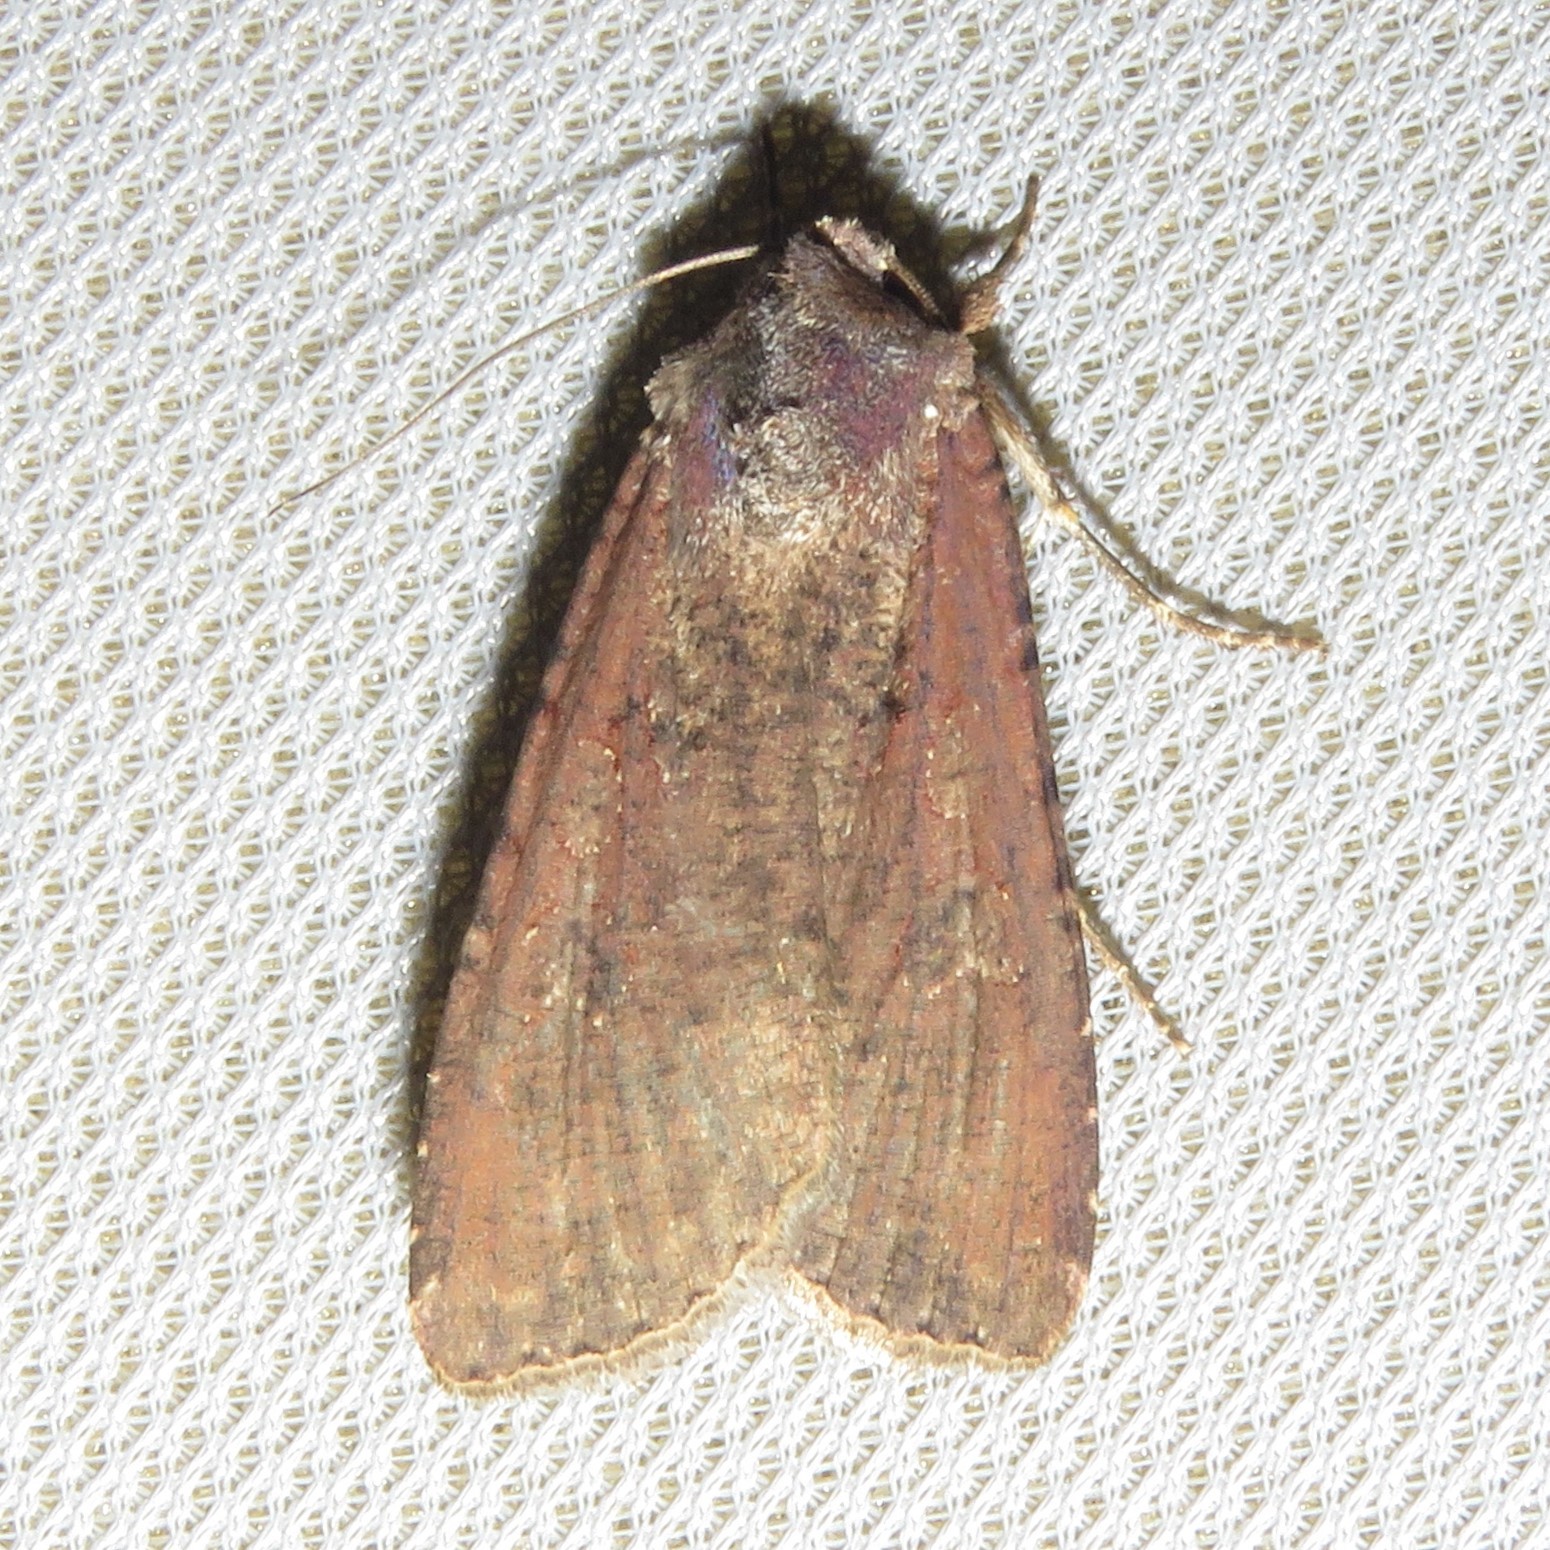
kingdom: Animalia
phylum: Arthropoda
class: Insecta
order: Lepidoptera
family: Noctuidae
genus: Peridroma
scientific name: Peridroma saucia
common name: Pearly underwing
